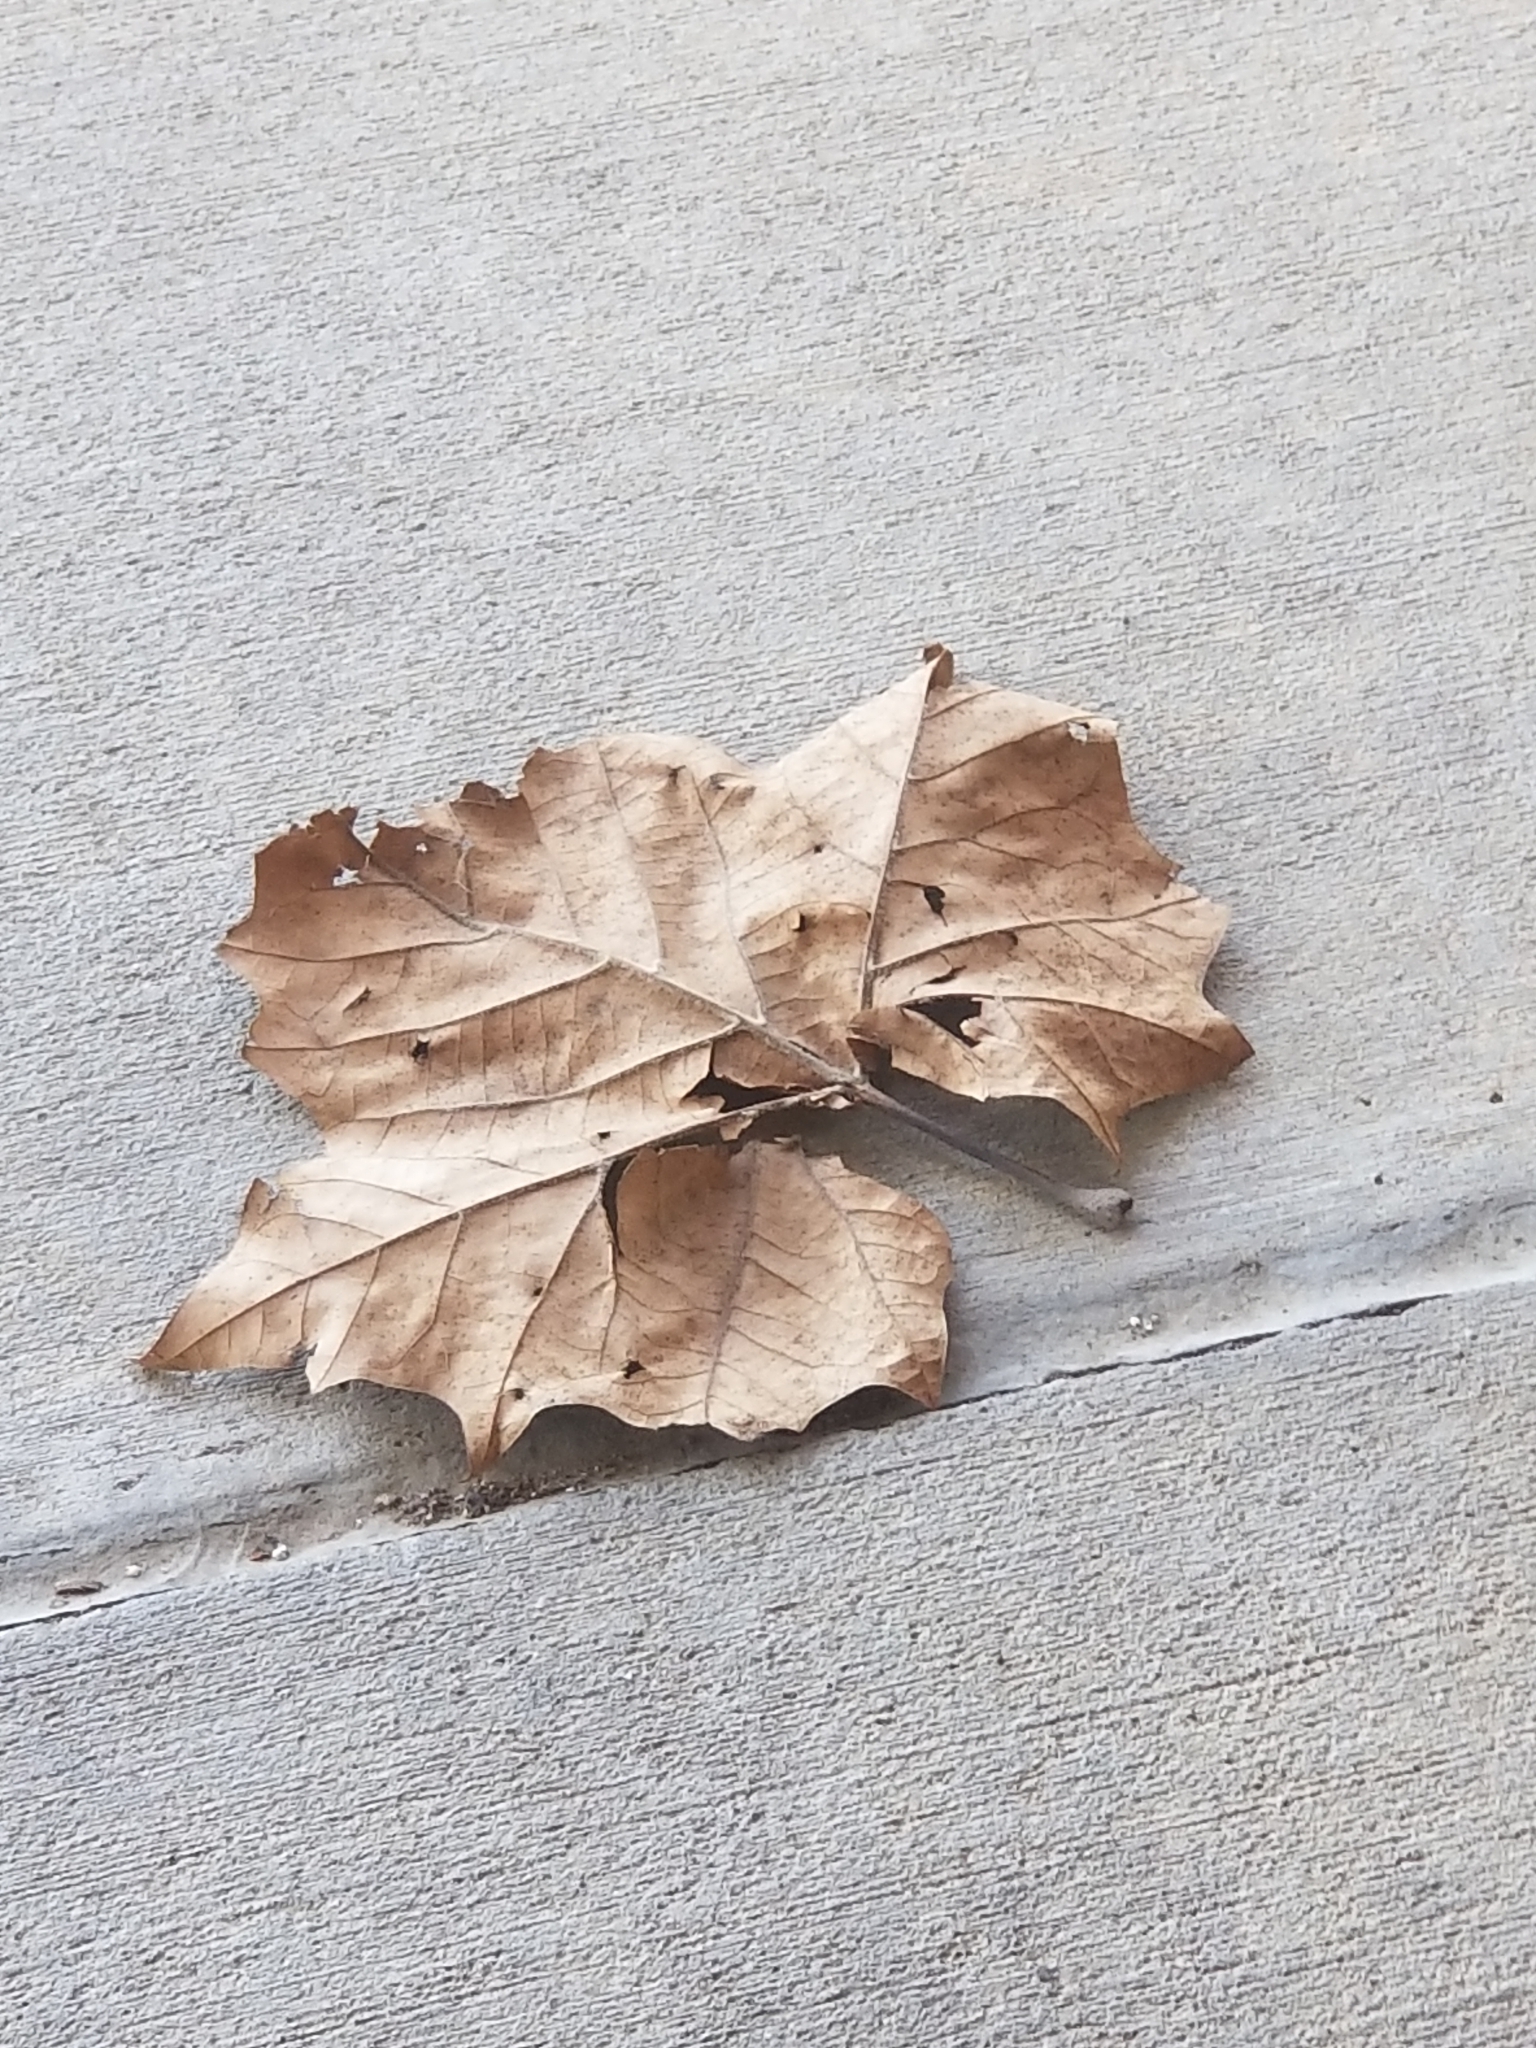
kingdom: Plantae
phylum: Tracheophyta
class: Magnoliopsida
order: Proteales
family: Platanaceae
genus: Platanus
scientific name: Platanus occidentalis
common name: American sycamore
